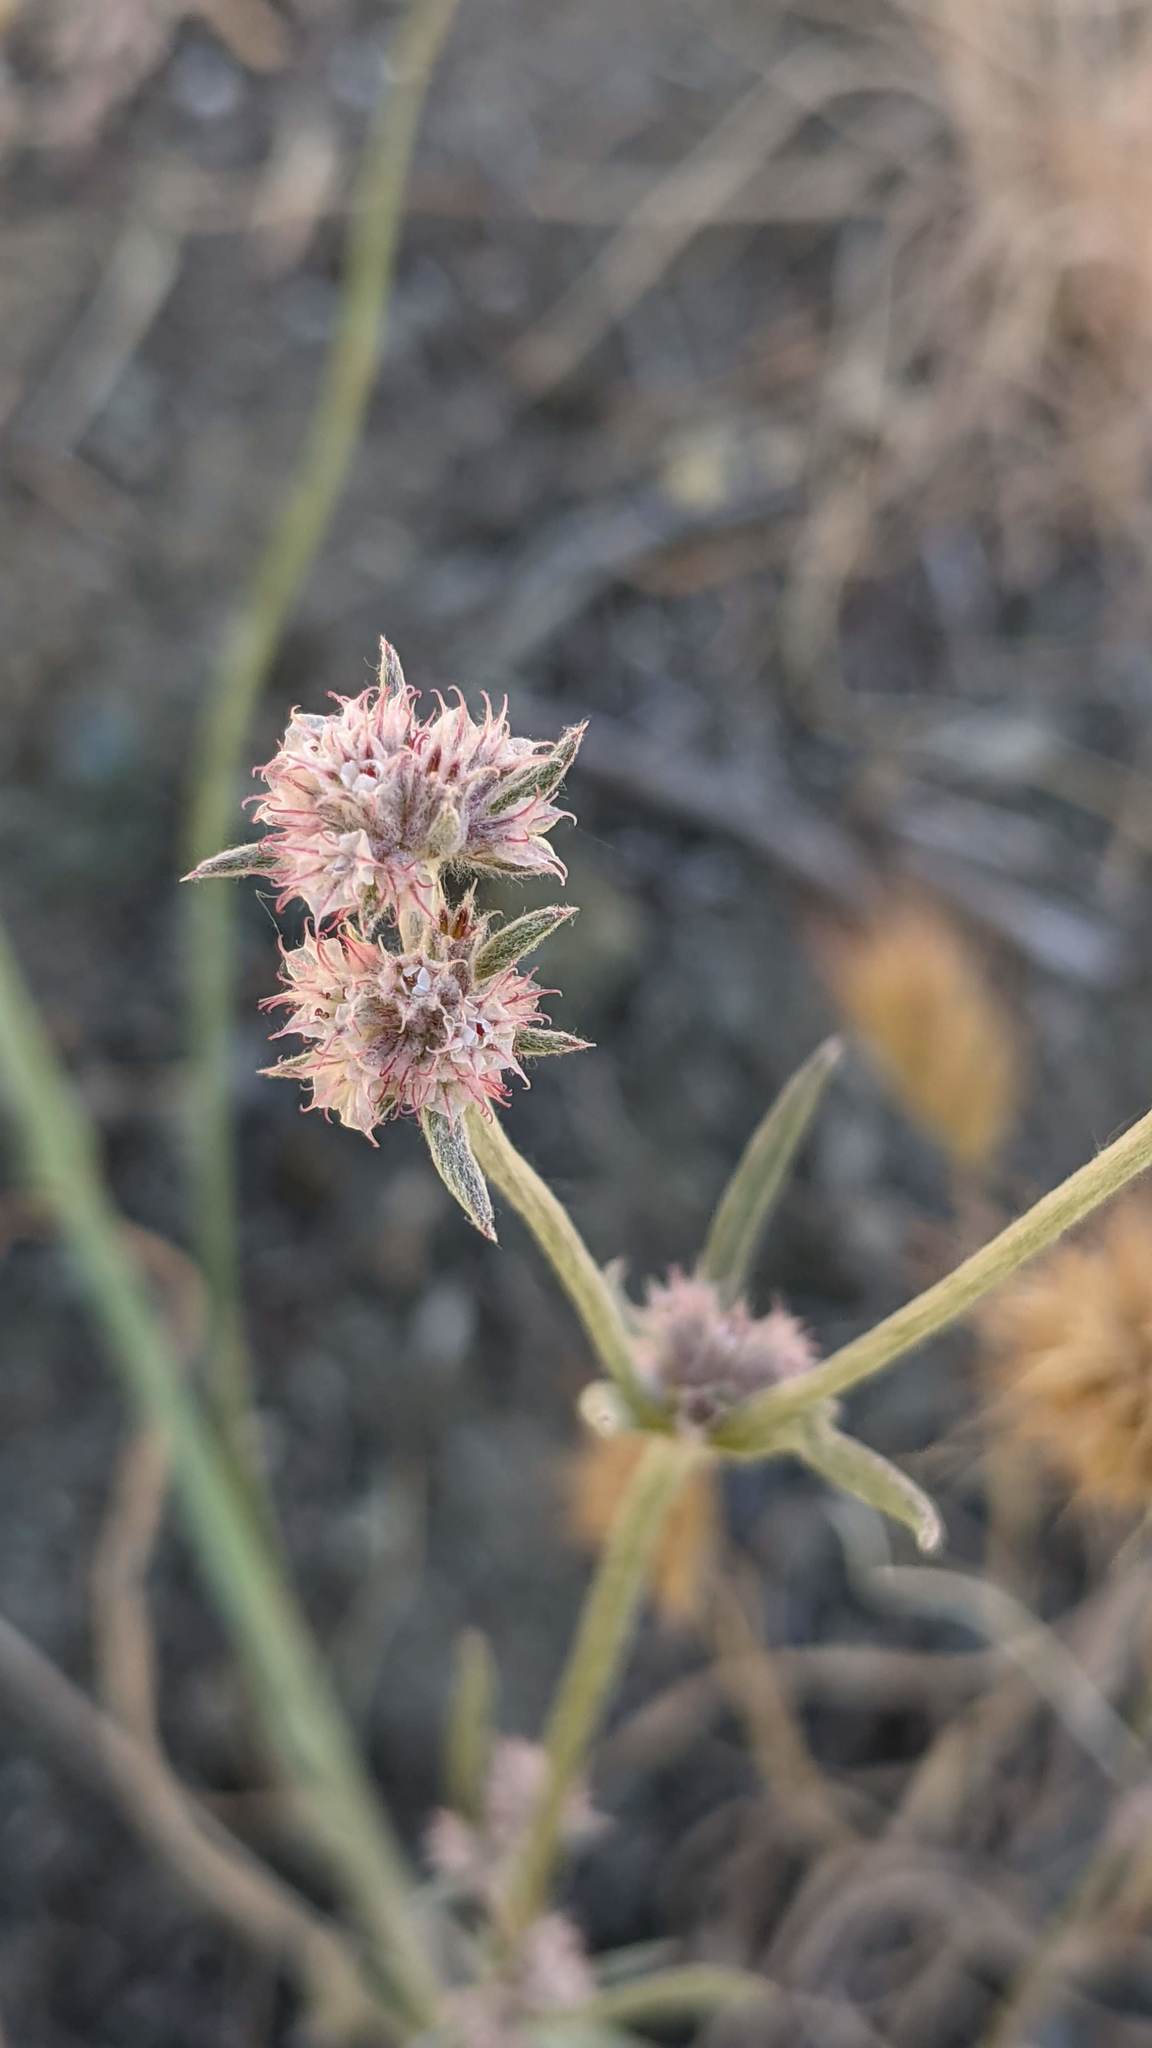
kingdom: Plantae
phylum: Tracheophyta
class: Magnoliopsida
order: Caryophyllales
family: Polygonaceae
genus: Chorizanthe
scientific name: Chorizanthe membranacea
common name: Pink spineflower
